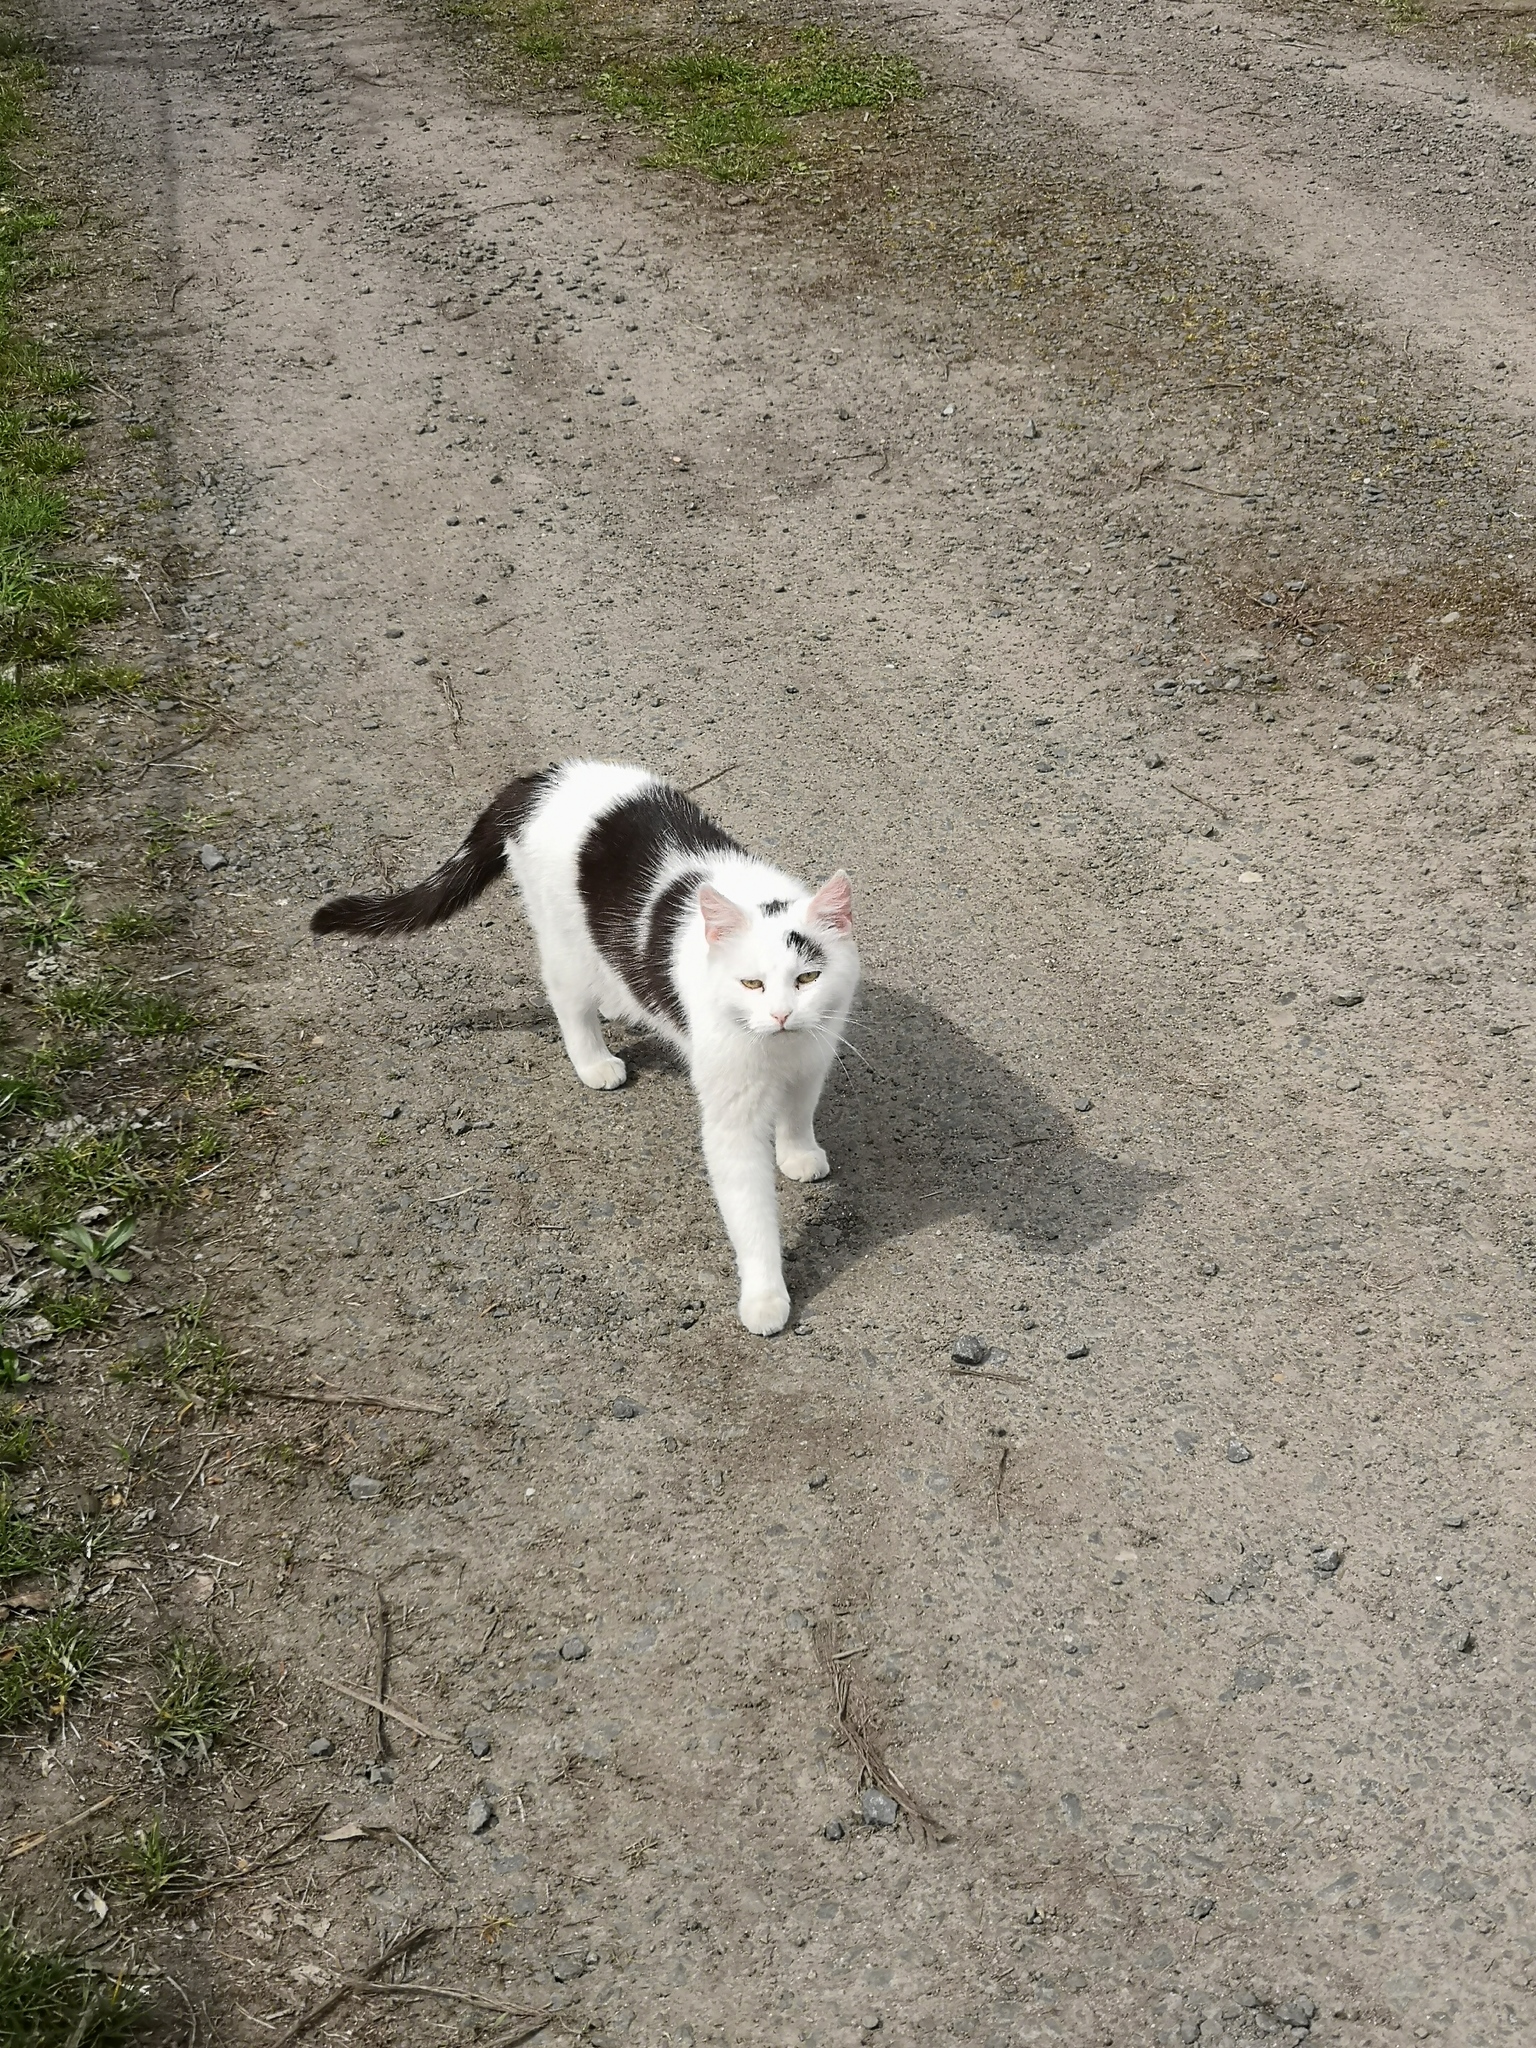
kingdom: Animalia
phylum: Chordata
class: Mammalia
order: Carnivora
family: Felidae
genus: Felis
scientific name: Felis catus
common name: Domestic cat
